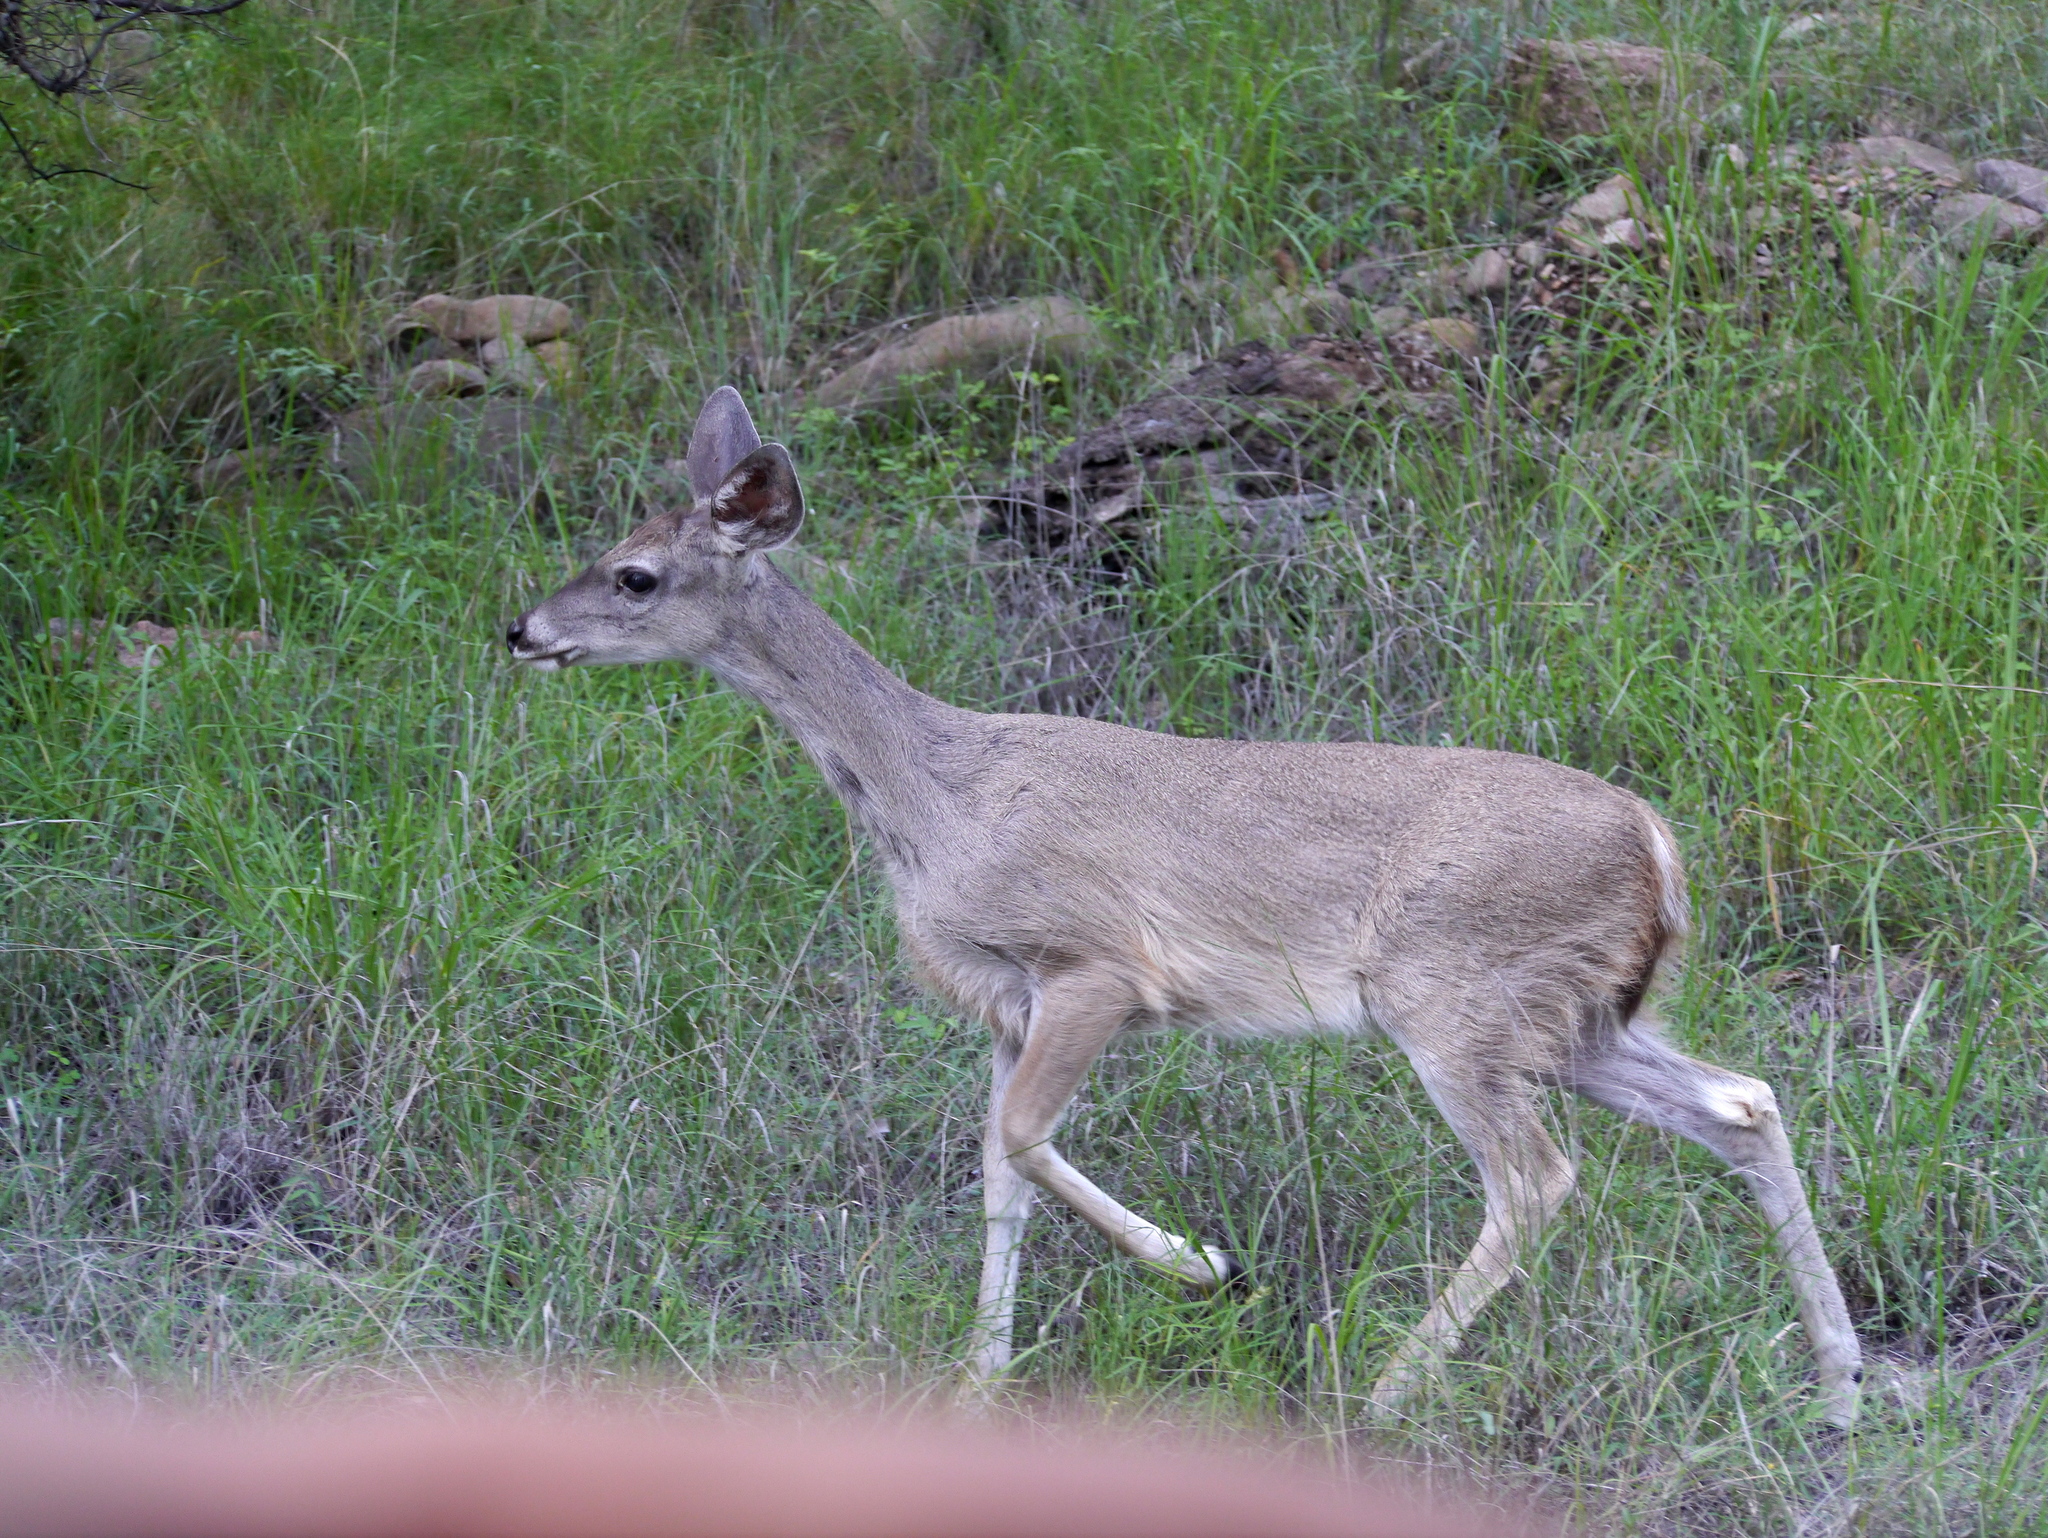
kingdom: Animalia
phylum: Chordata
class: Mammalia
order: Artiodactyla
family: Cervidae
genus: Odocoileus
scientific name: Odocoileus virginianus
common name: White-tailed deer
